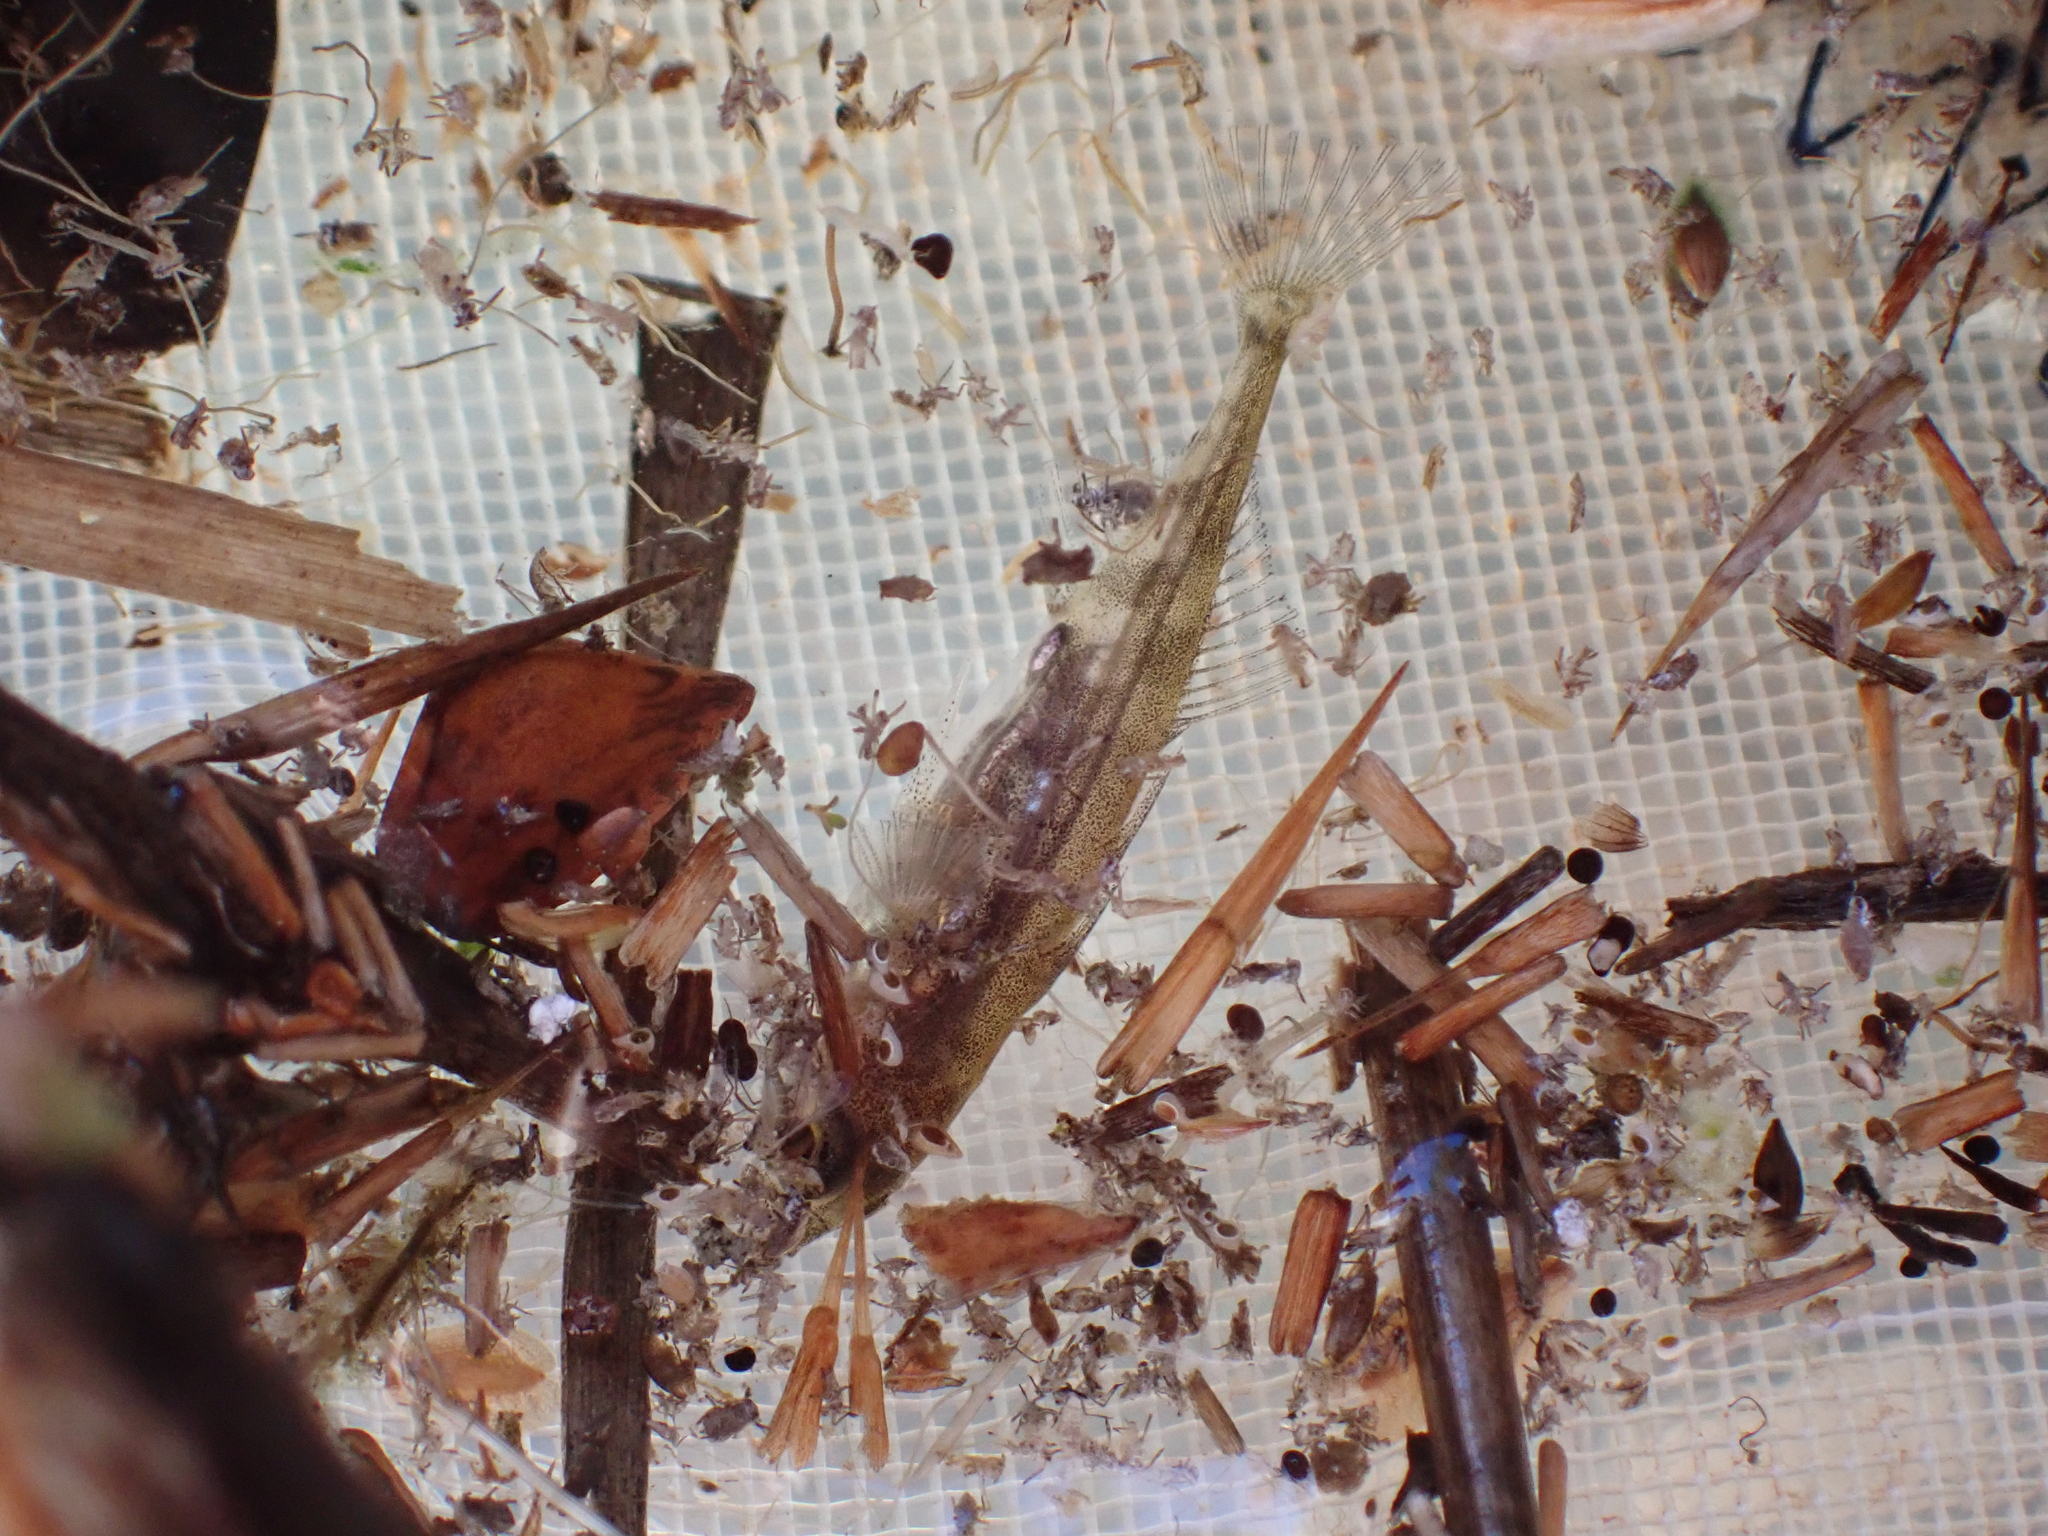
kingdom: Animalia
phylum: Chordata
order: Gasterosteiformes
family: Gasterosteidae
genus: Gasterosteus
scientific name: Gasterosteus aculeatus
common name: Three-spined stickleback
